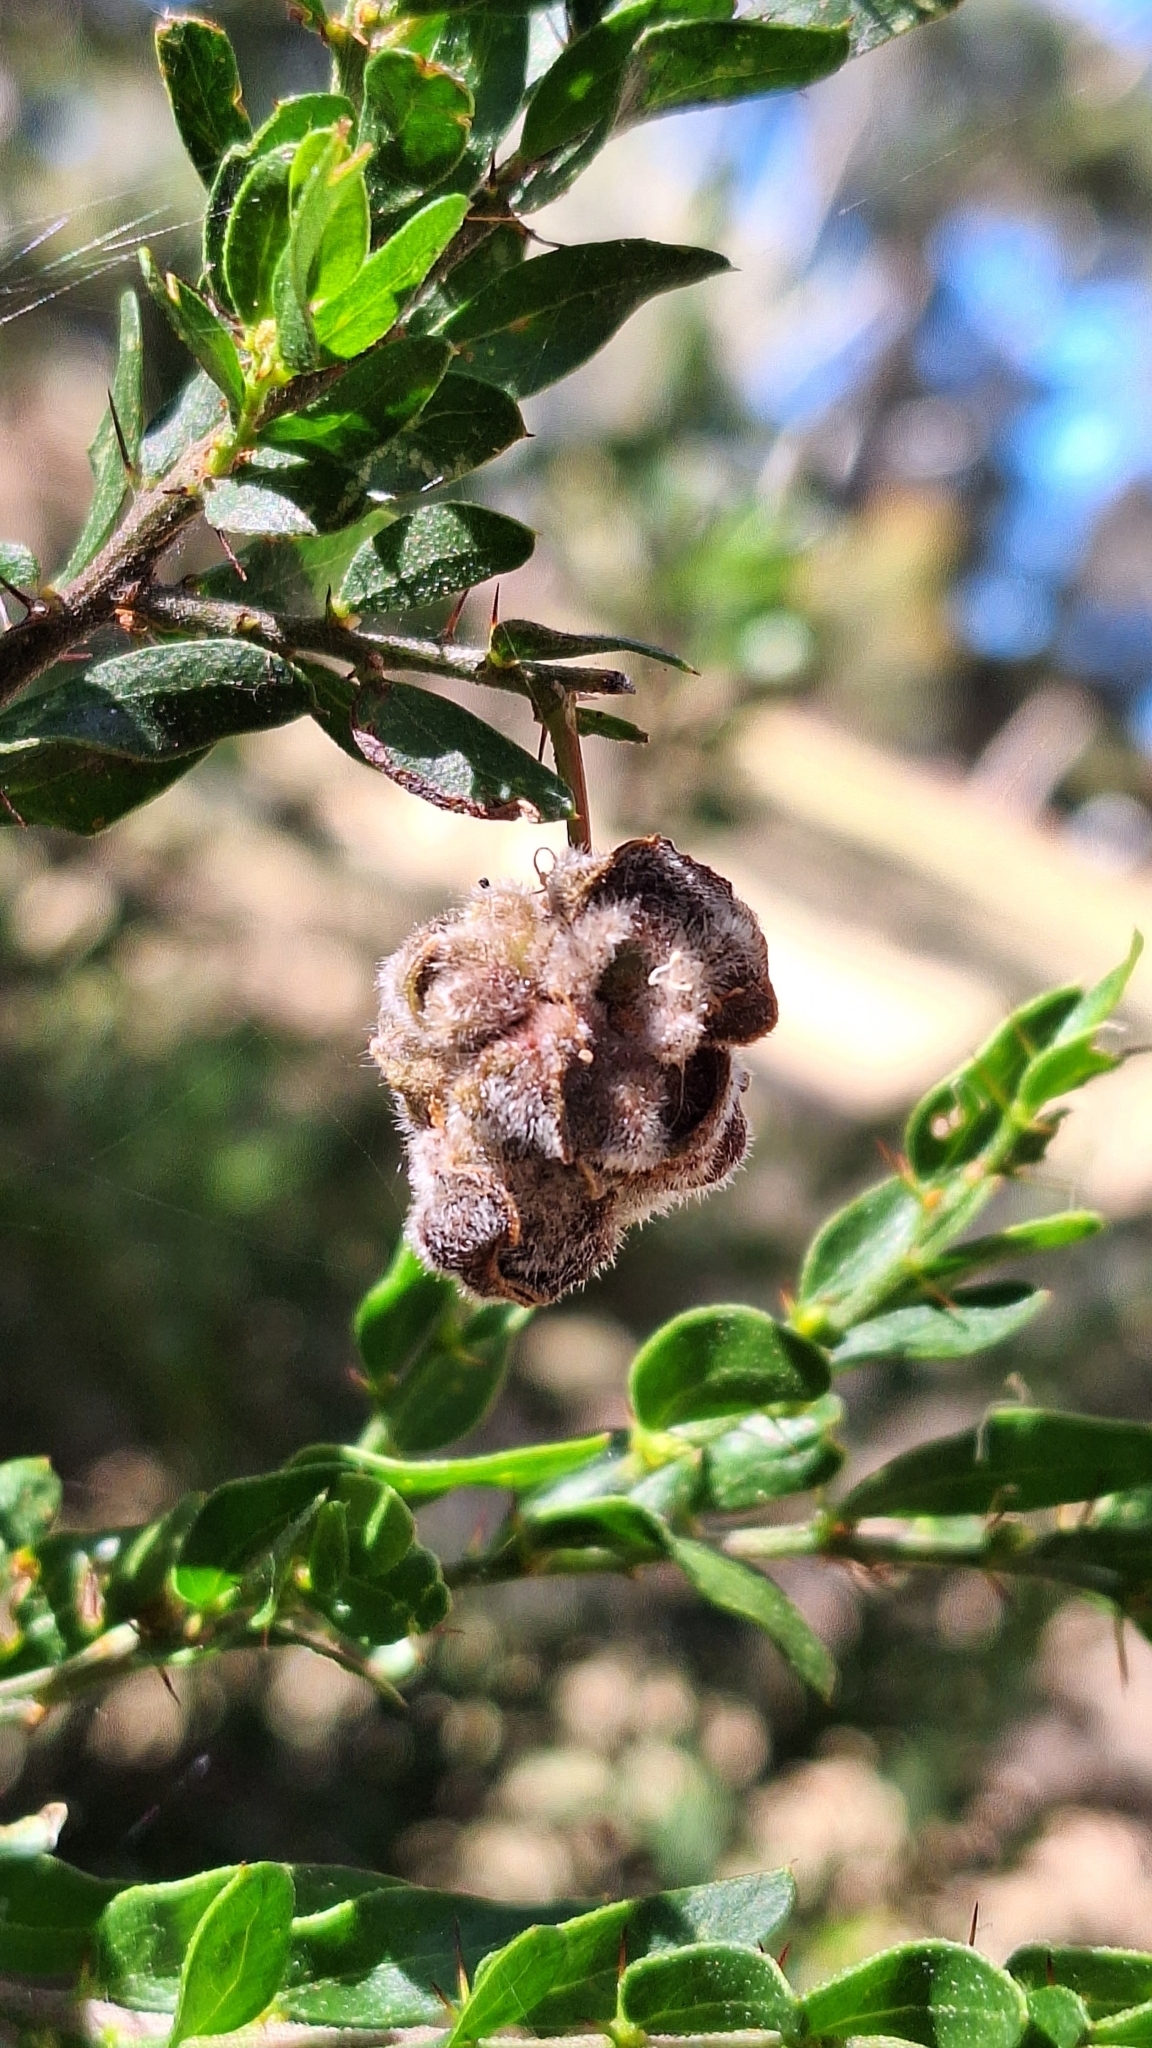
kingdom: Plantae
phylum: Tracheophyta
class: Magnoliopsida
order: Fabales
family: Fabaceae
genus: Acacia
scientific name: Acacia paradoxa
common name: Paradox acacia
